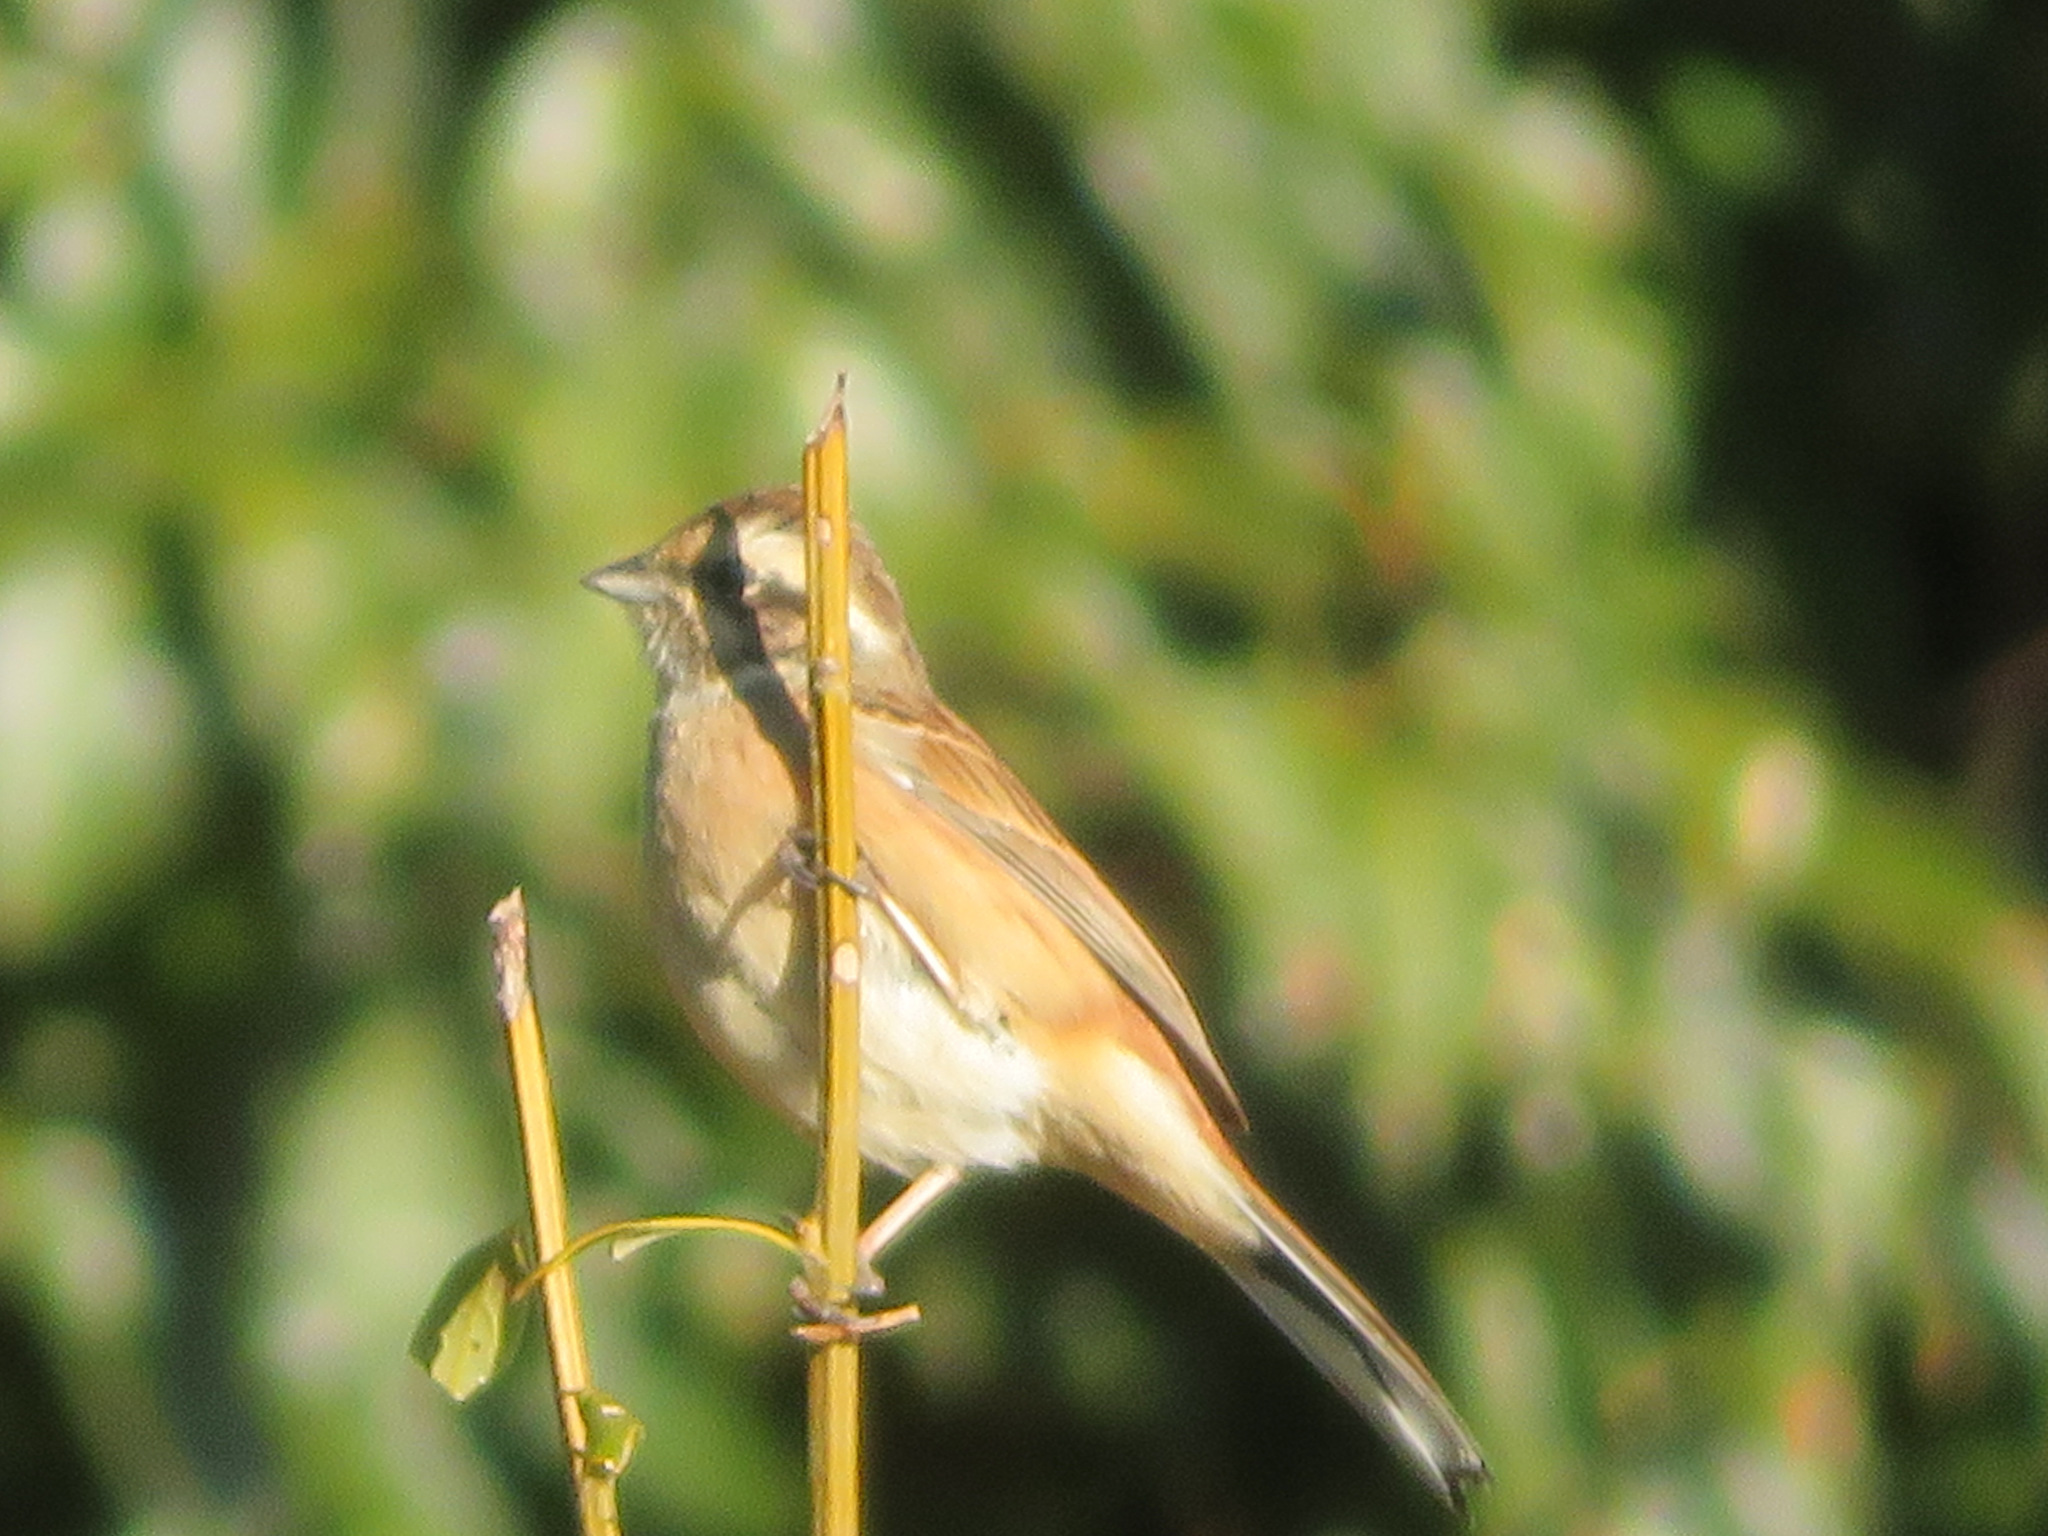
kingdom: Animalia
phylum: Chordata
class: Aves
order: Passeriformes
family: Emberizidae
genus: Emberiza
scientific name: Emberiza cioides
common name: Meadow bunting
